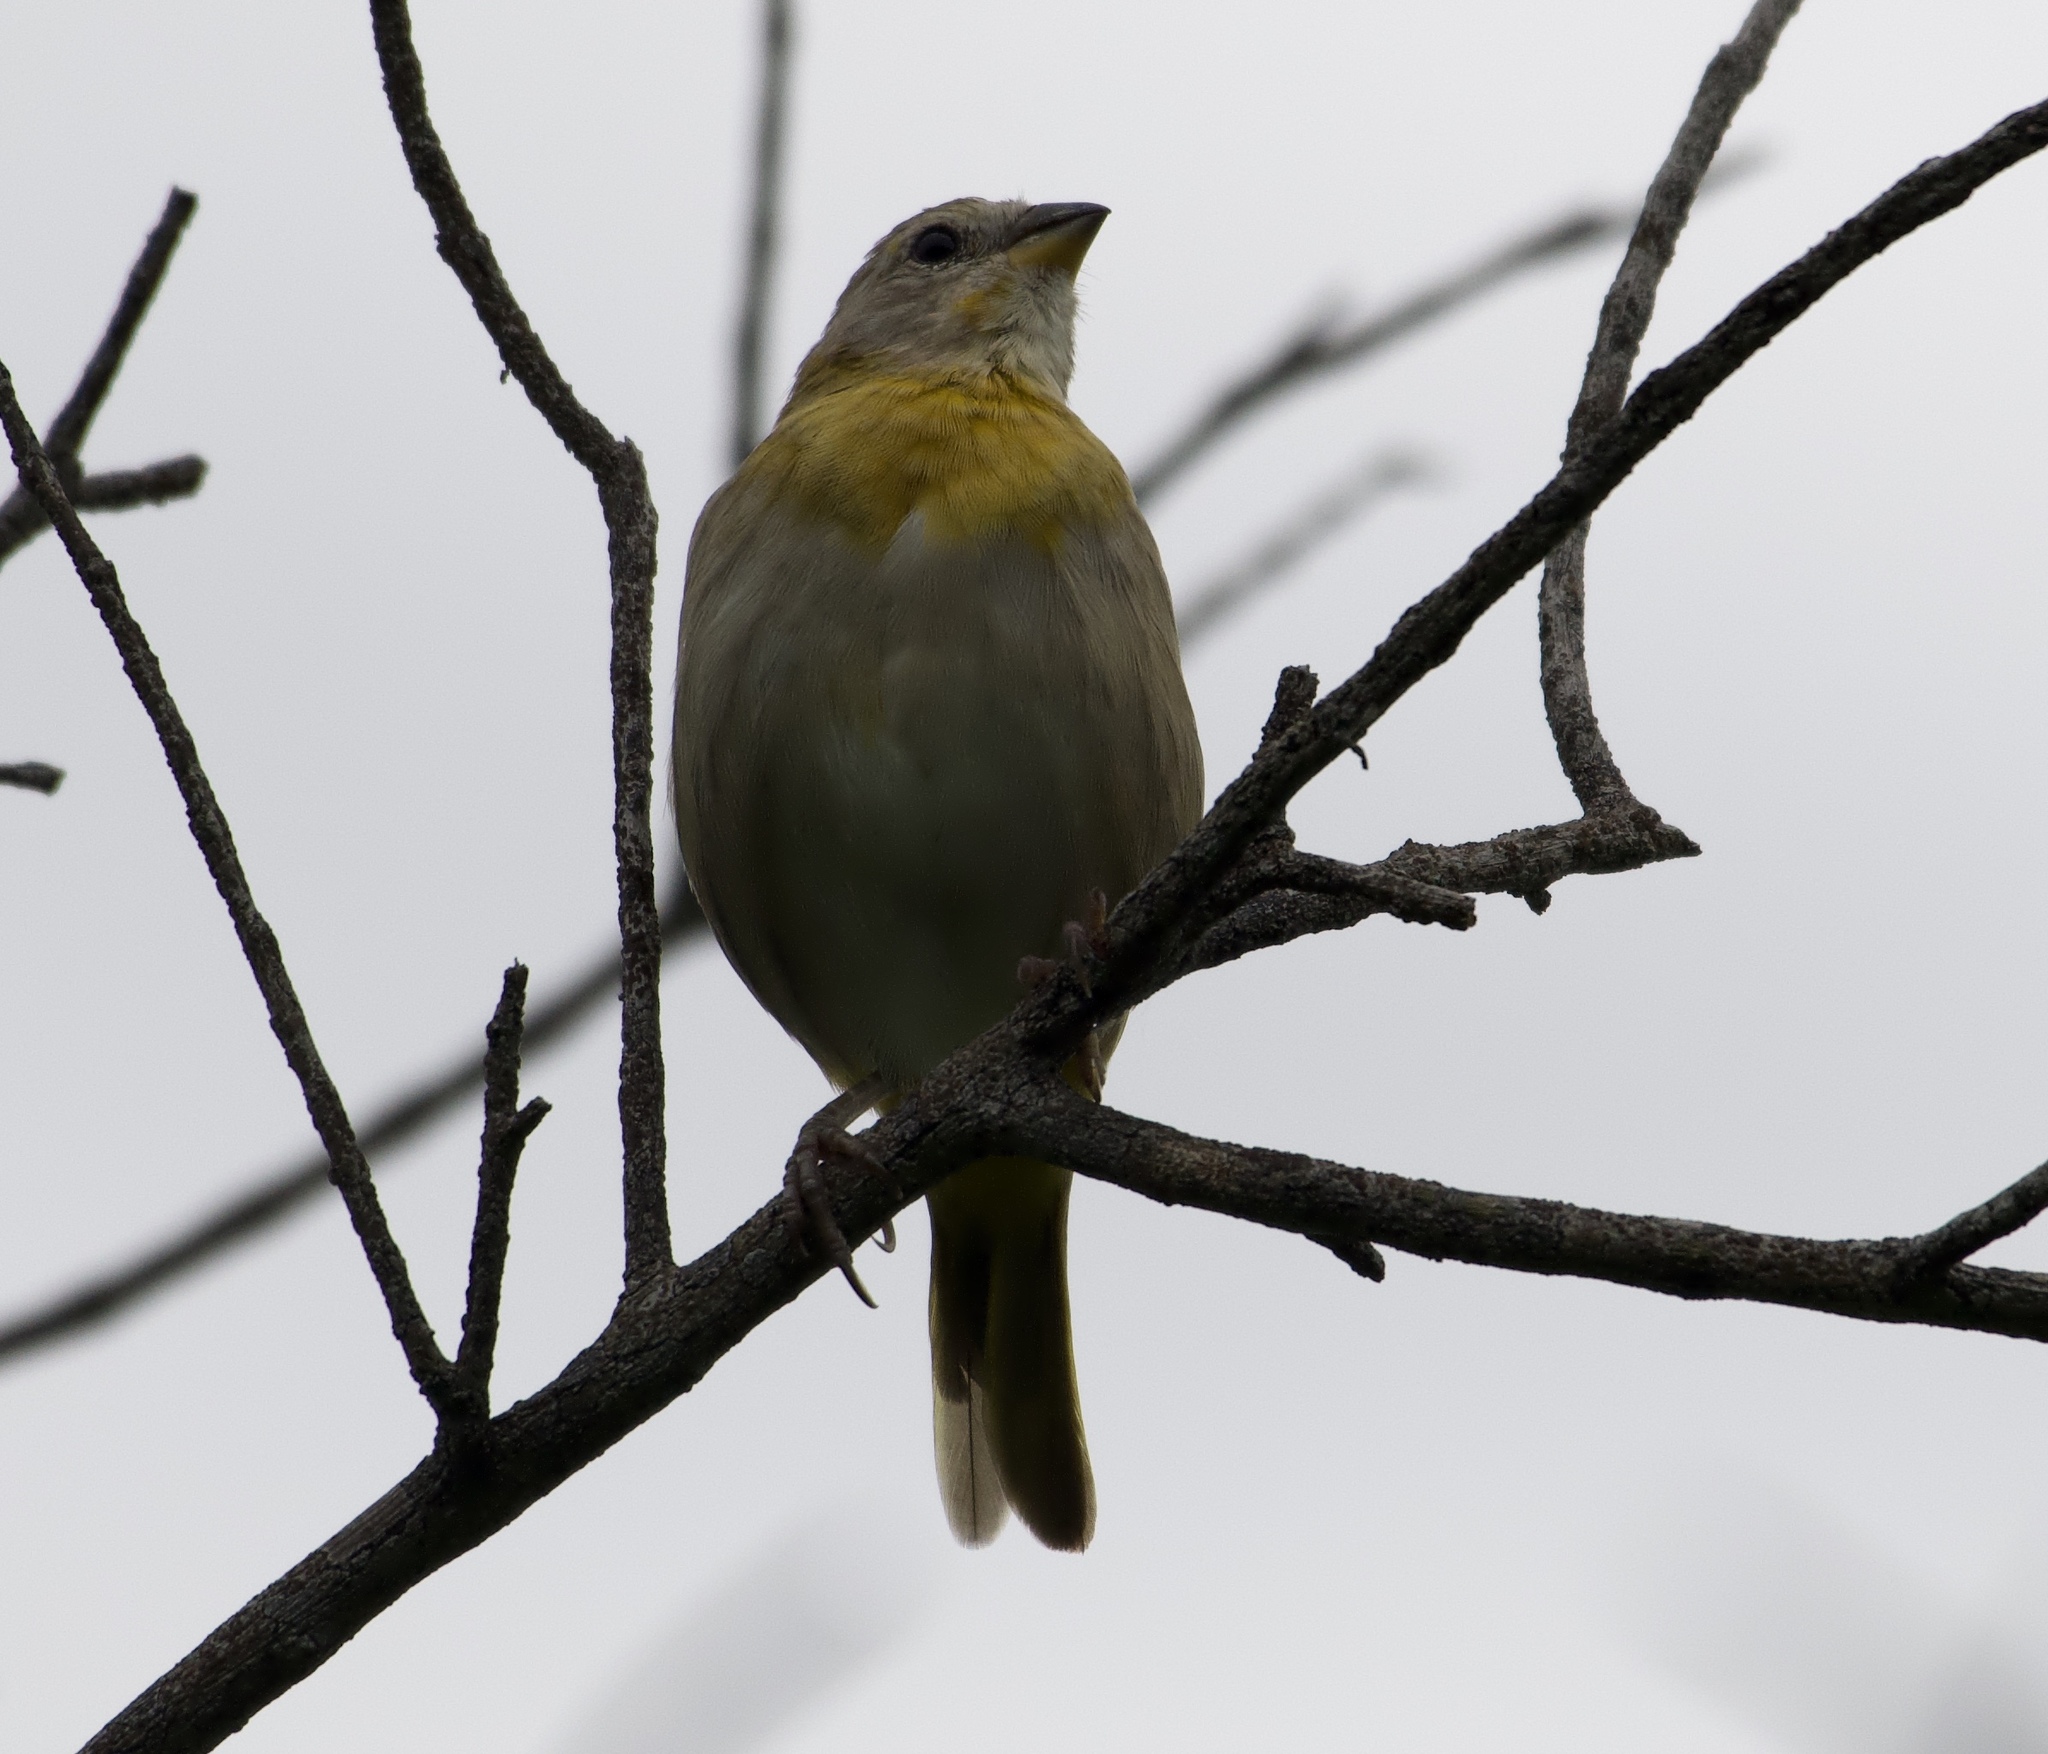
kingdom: Animalia
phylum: Chordata
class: Aves
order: Passeriformes
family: Thraupidae
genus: Sicalis
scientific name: Sicalis flaveola
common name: Saffron finch
